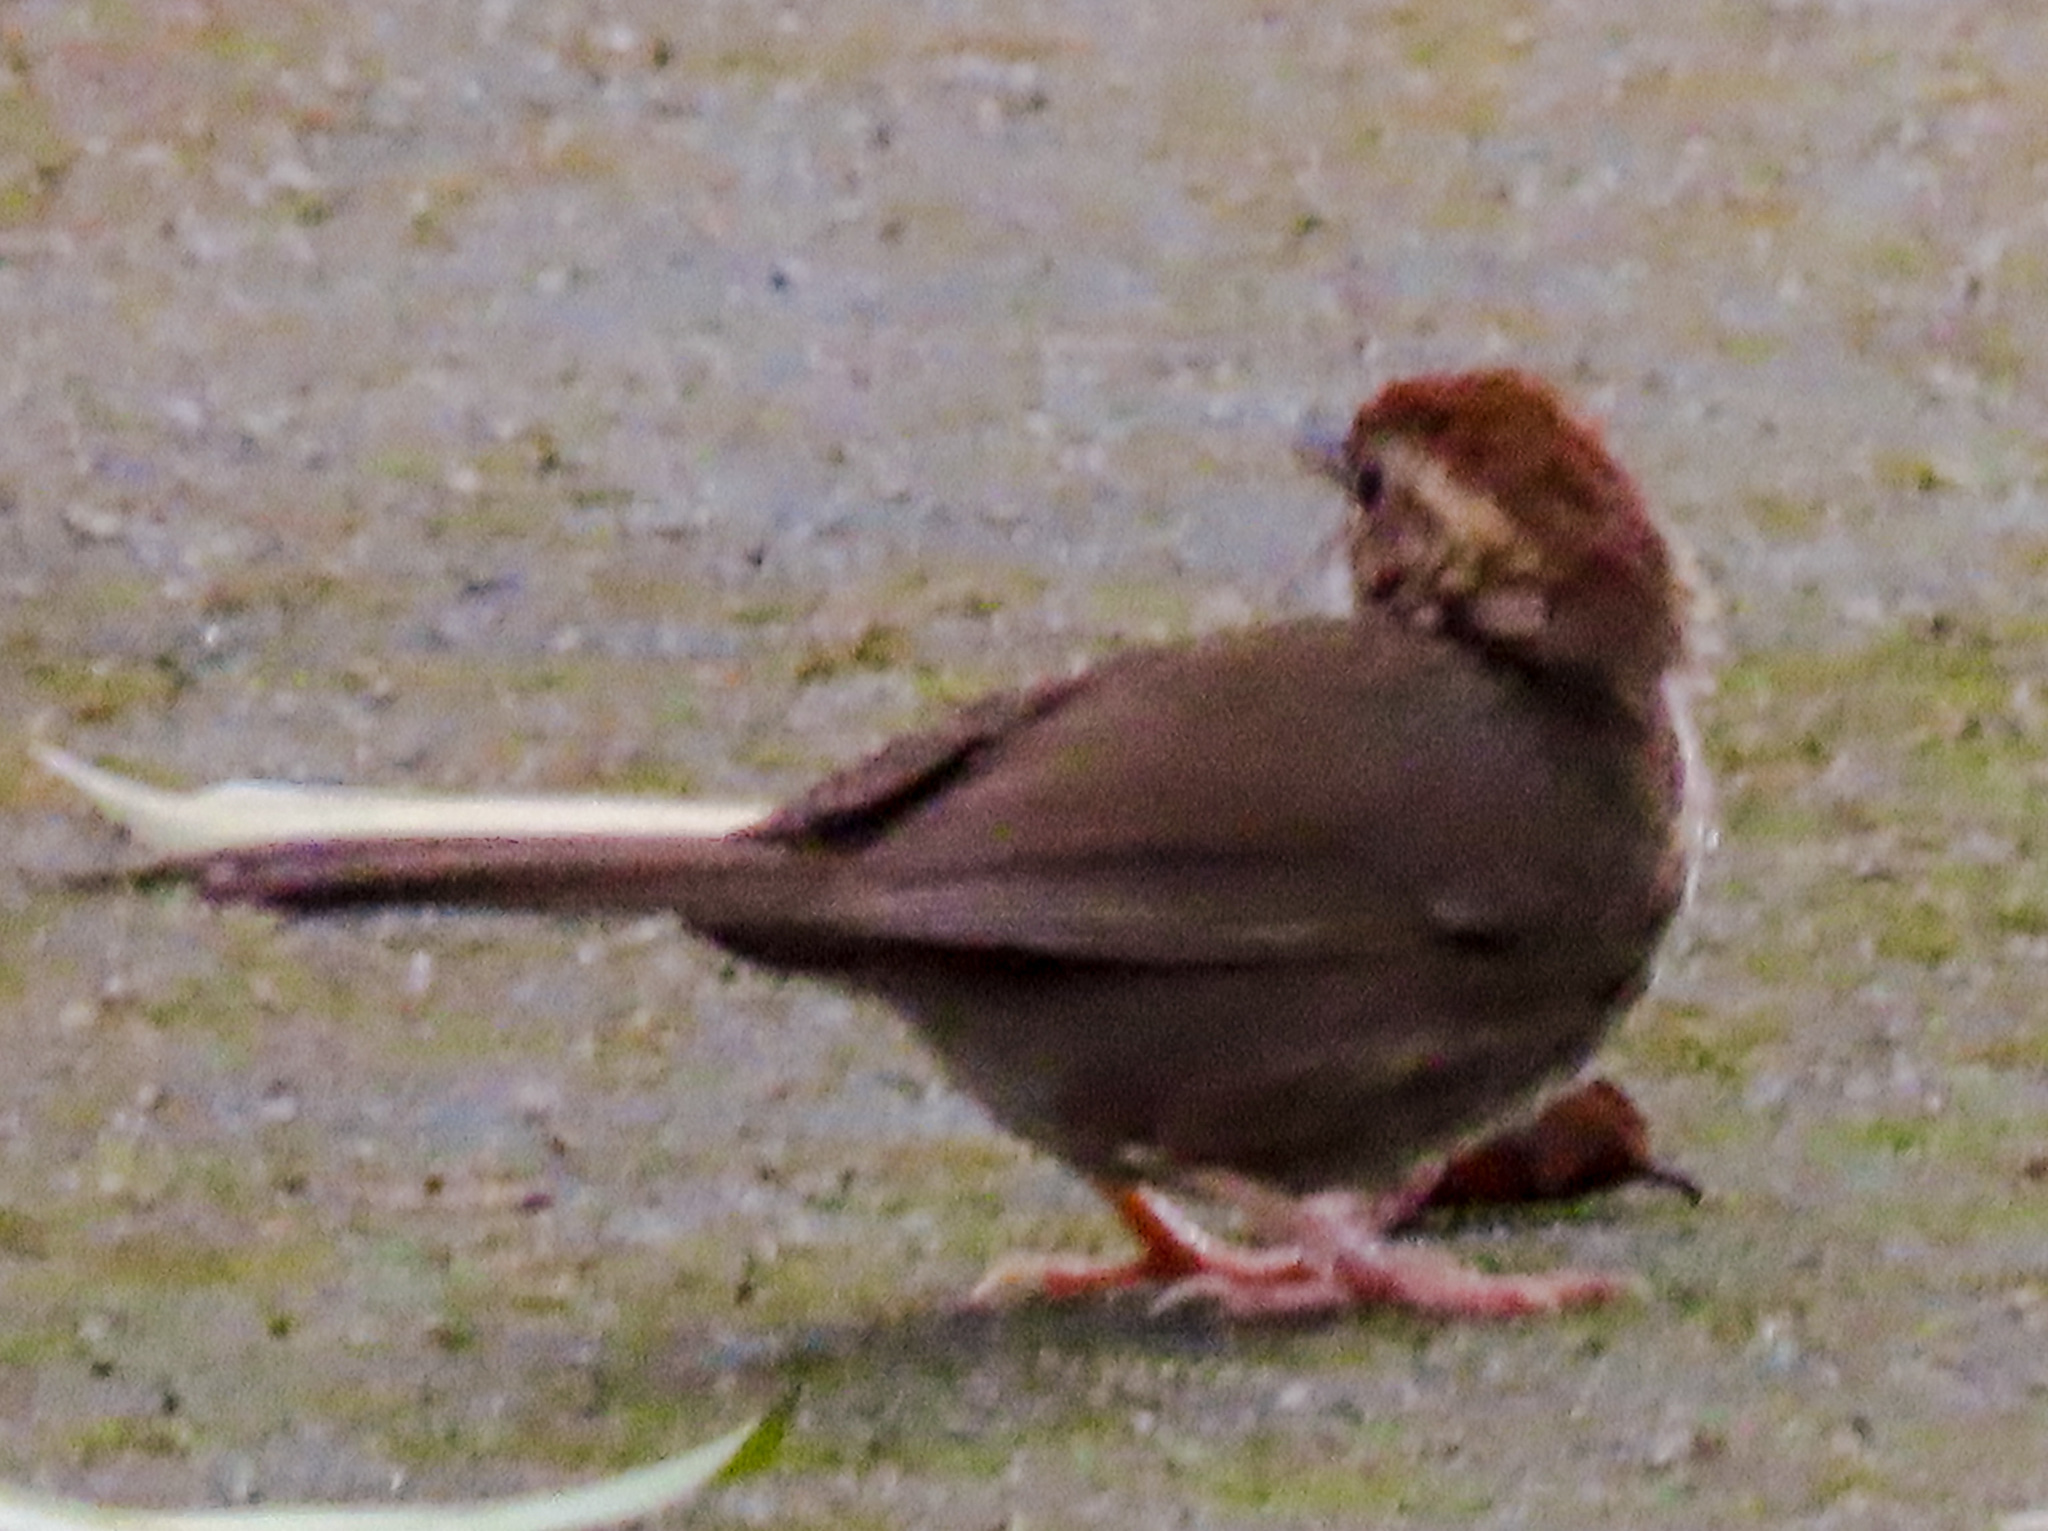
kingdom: Animalia
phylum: Chordata
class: Aves
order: Passeriformes
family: Pellorneidae
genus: Pellorneum
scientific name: Pellorneum ruficeps
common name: Puff-throated babbler
